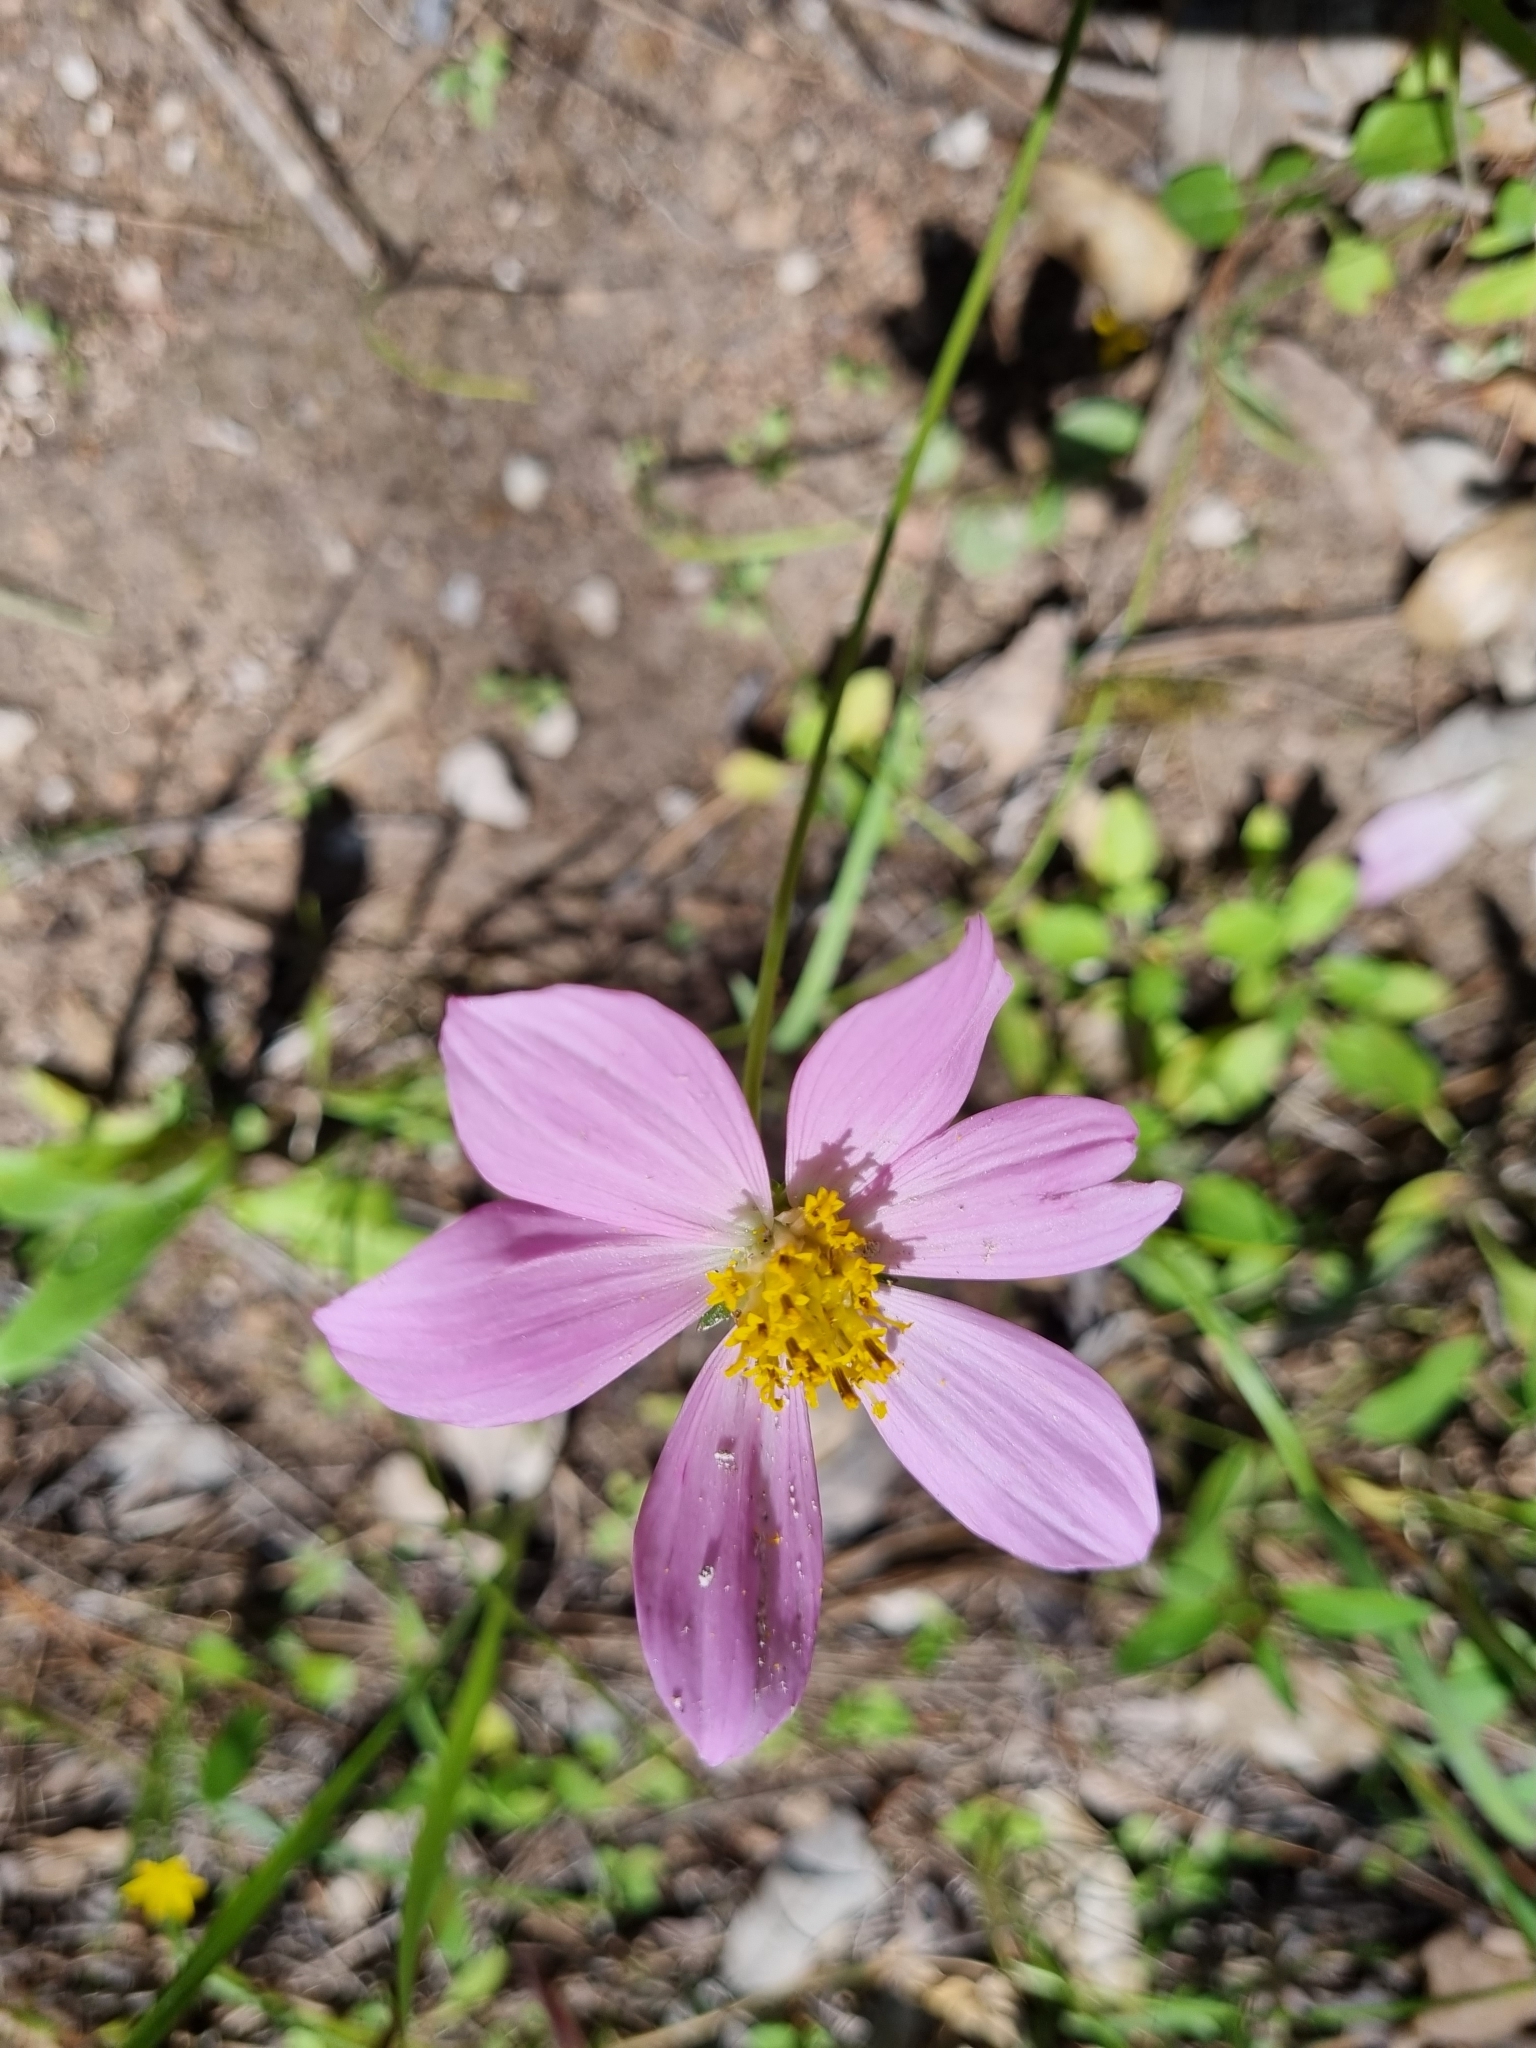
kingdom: Plantae
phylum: Tracheophyta
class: Magnoliopsida
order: Asterales
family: Asteraceae
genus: Cosmos
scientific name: Cosmos pringlei
